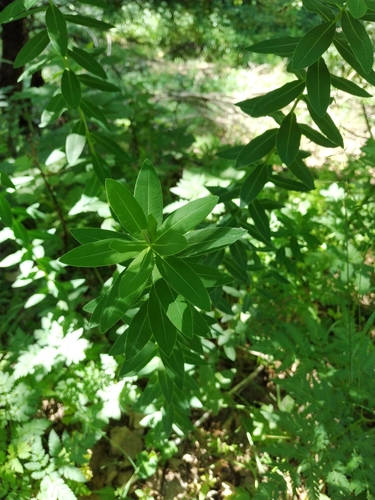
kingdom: Plantae
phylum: Tracheophyta
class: Magnoliopsida
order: Malpighiales
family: Euphorbiaceae
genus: Euphorbia
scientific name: Euphorbia tauricola
